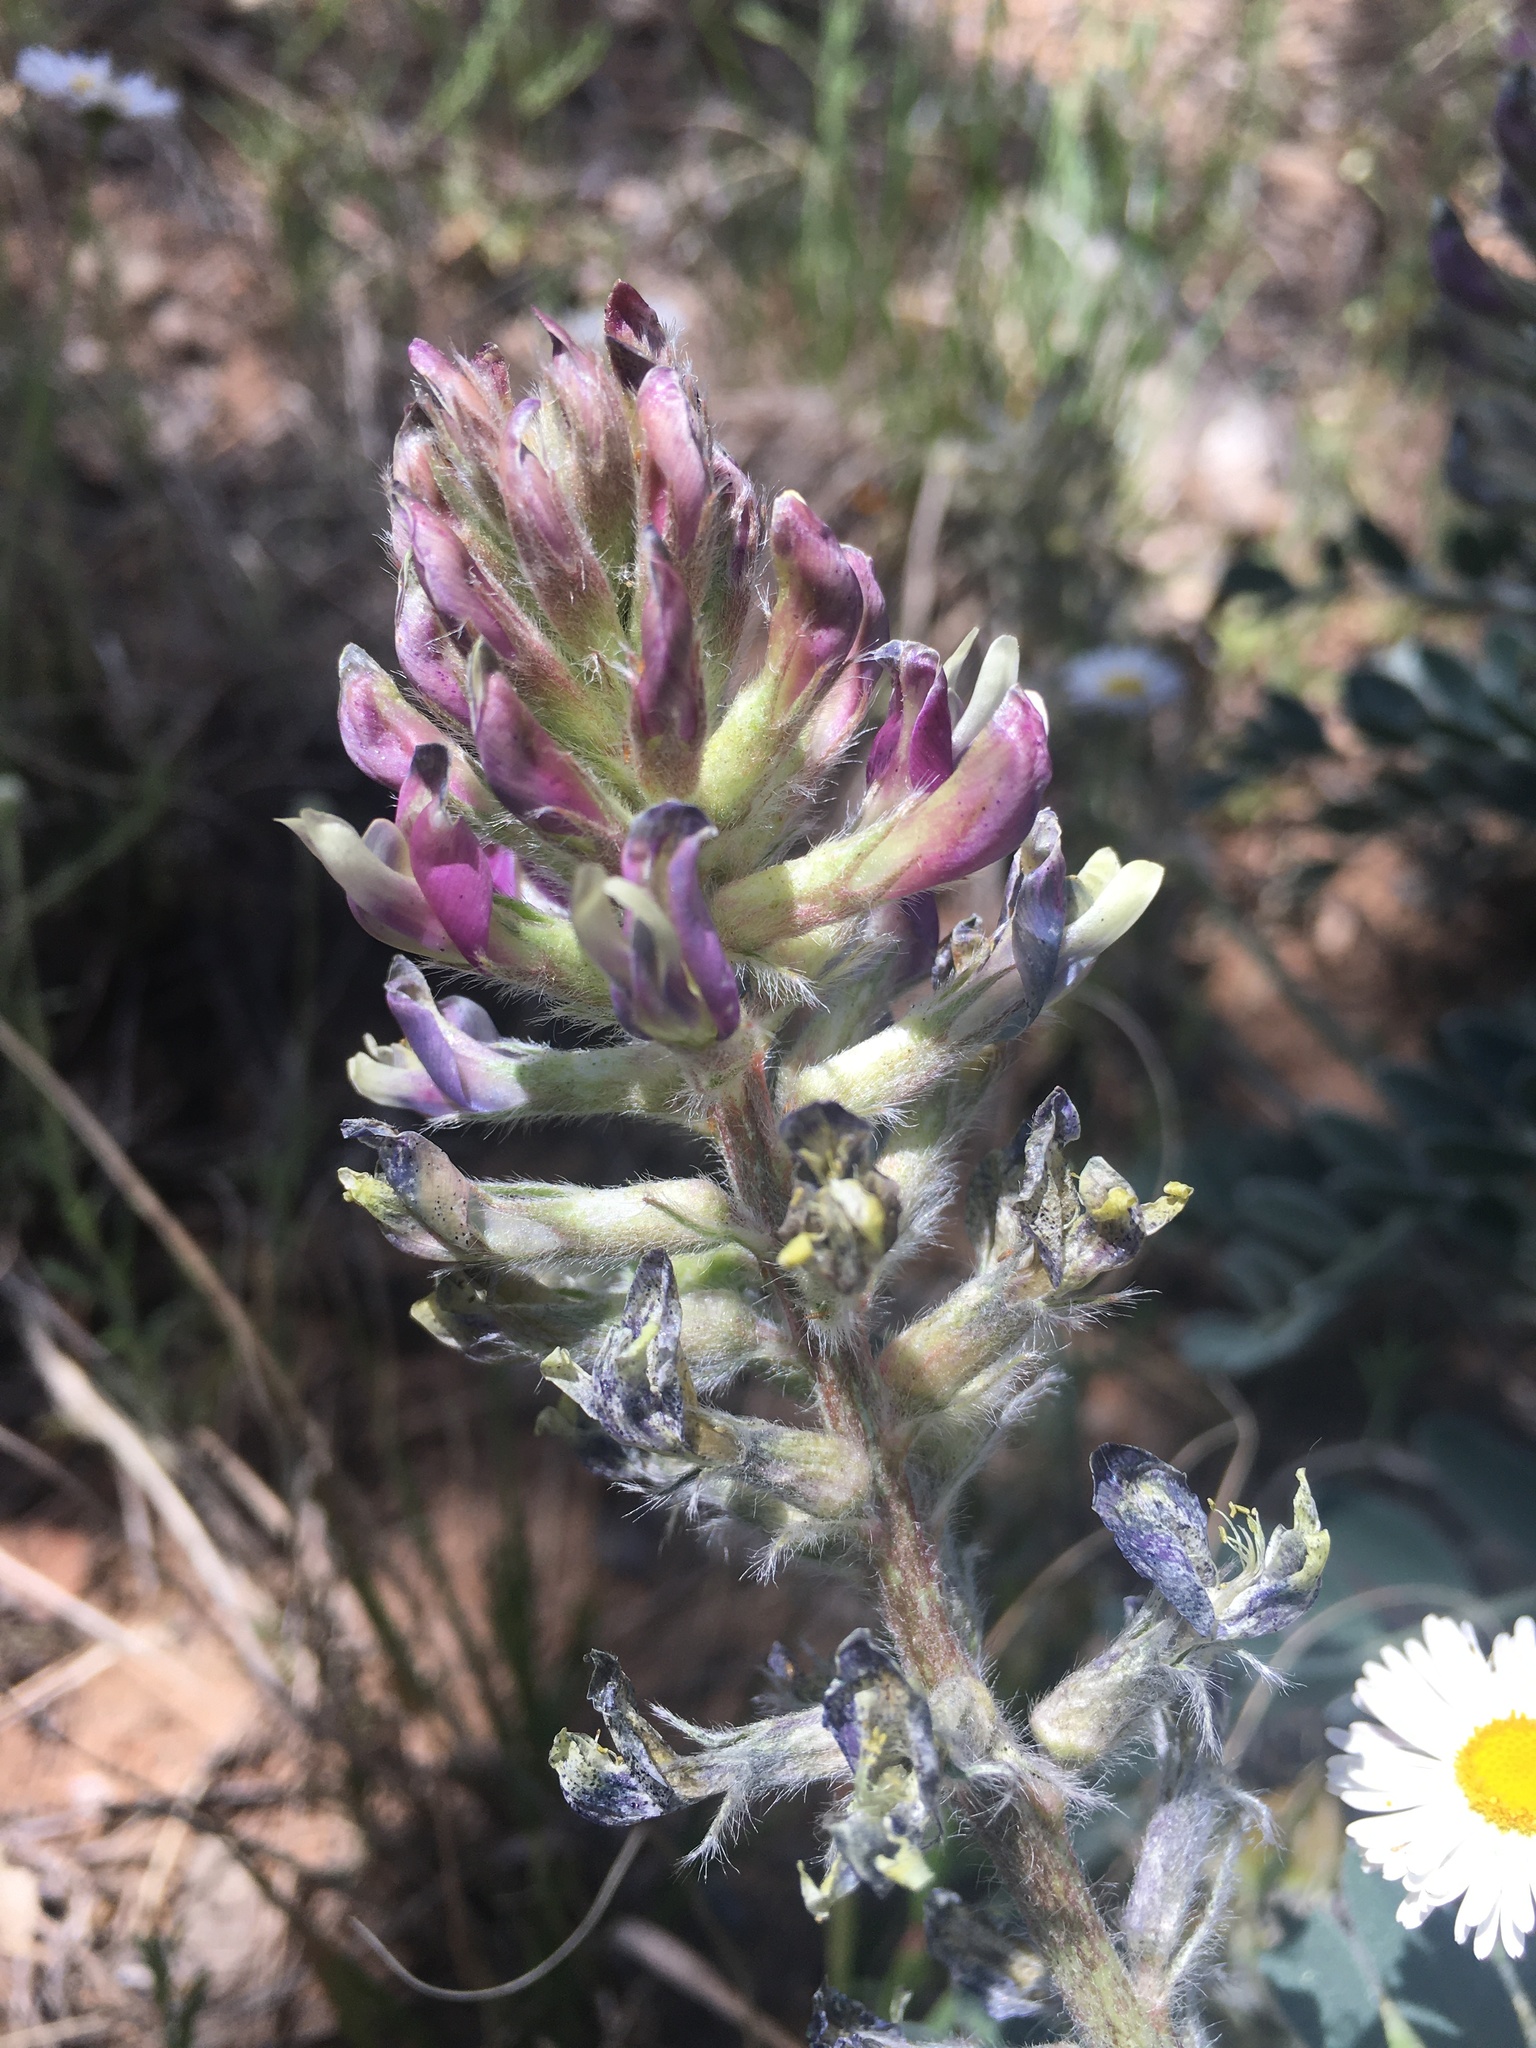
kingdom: Plantae
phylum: Tracheophyta
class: Magnoliopsida
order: Fabales
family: Fabaceae
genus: Astragalus
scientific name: Astragalus mollissimus
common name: Woolly locoweed
